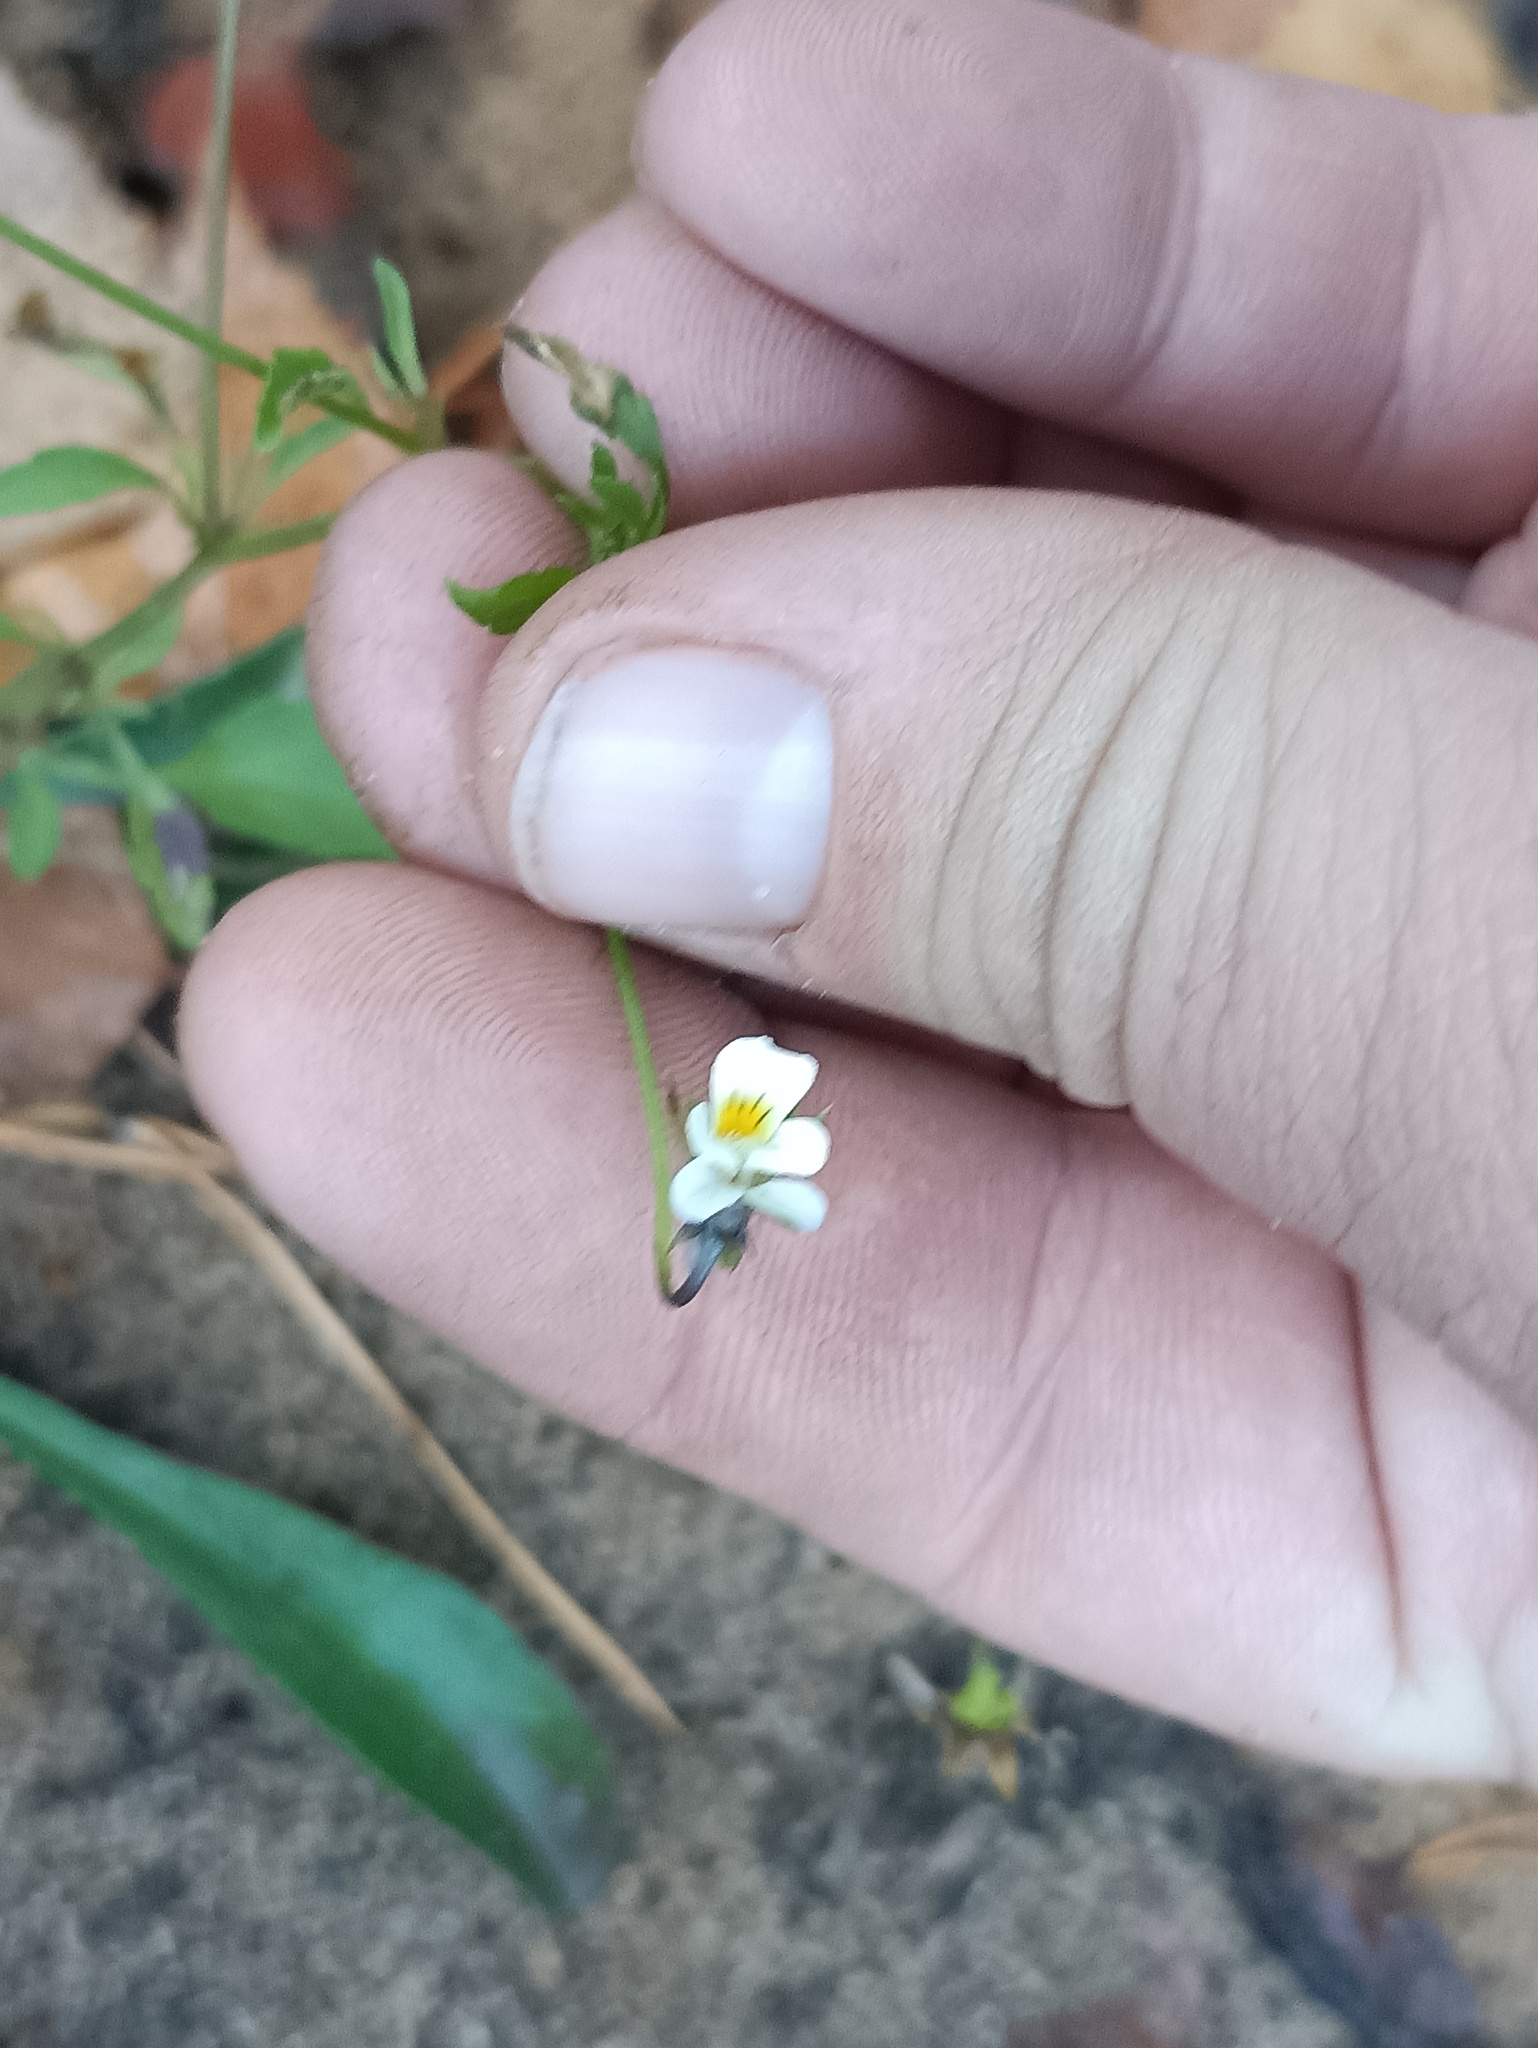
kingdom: Plantae
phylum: Tracheophyta
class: Magnoliopsida
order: Malpighiales
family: Violaceae
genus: Viola
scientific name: Viola arvensis
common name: Field pansy
